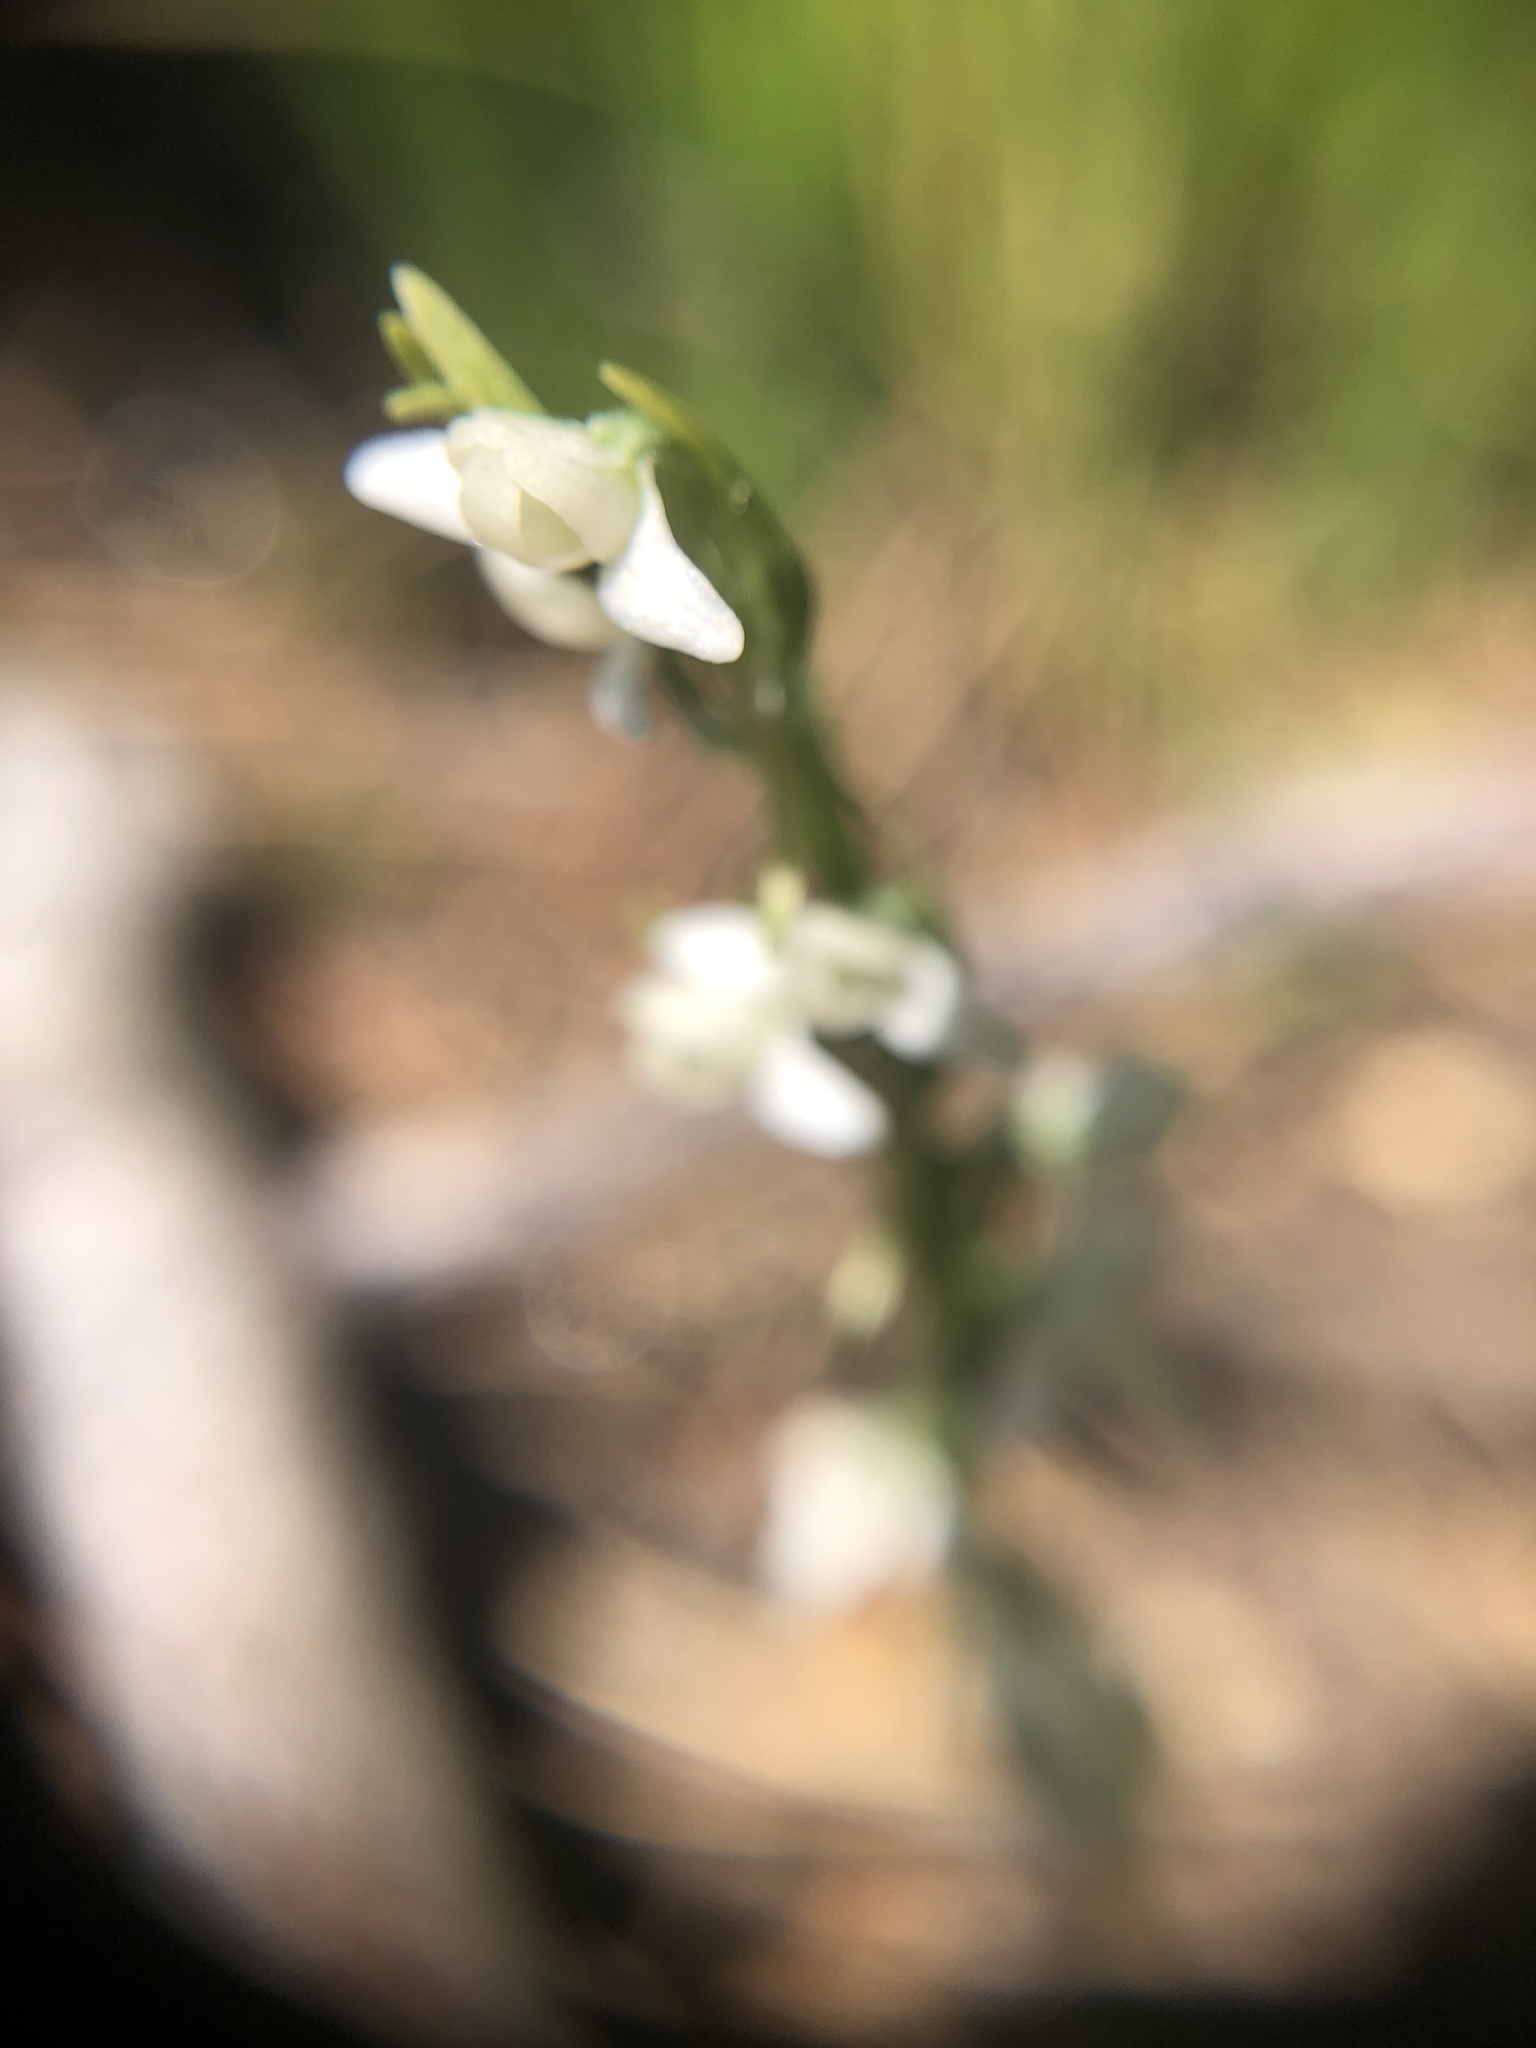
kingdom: Plantae
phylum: Tracheophyta
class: Liliopsida
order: Asparagales
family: Orchidaceae
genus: Platanthera
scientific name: Platanthera dilatata
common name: Bog candles
